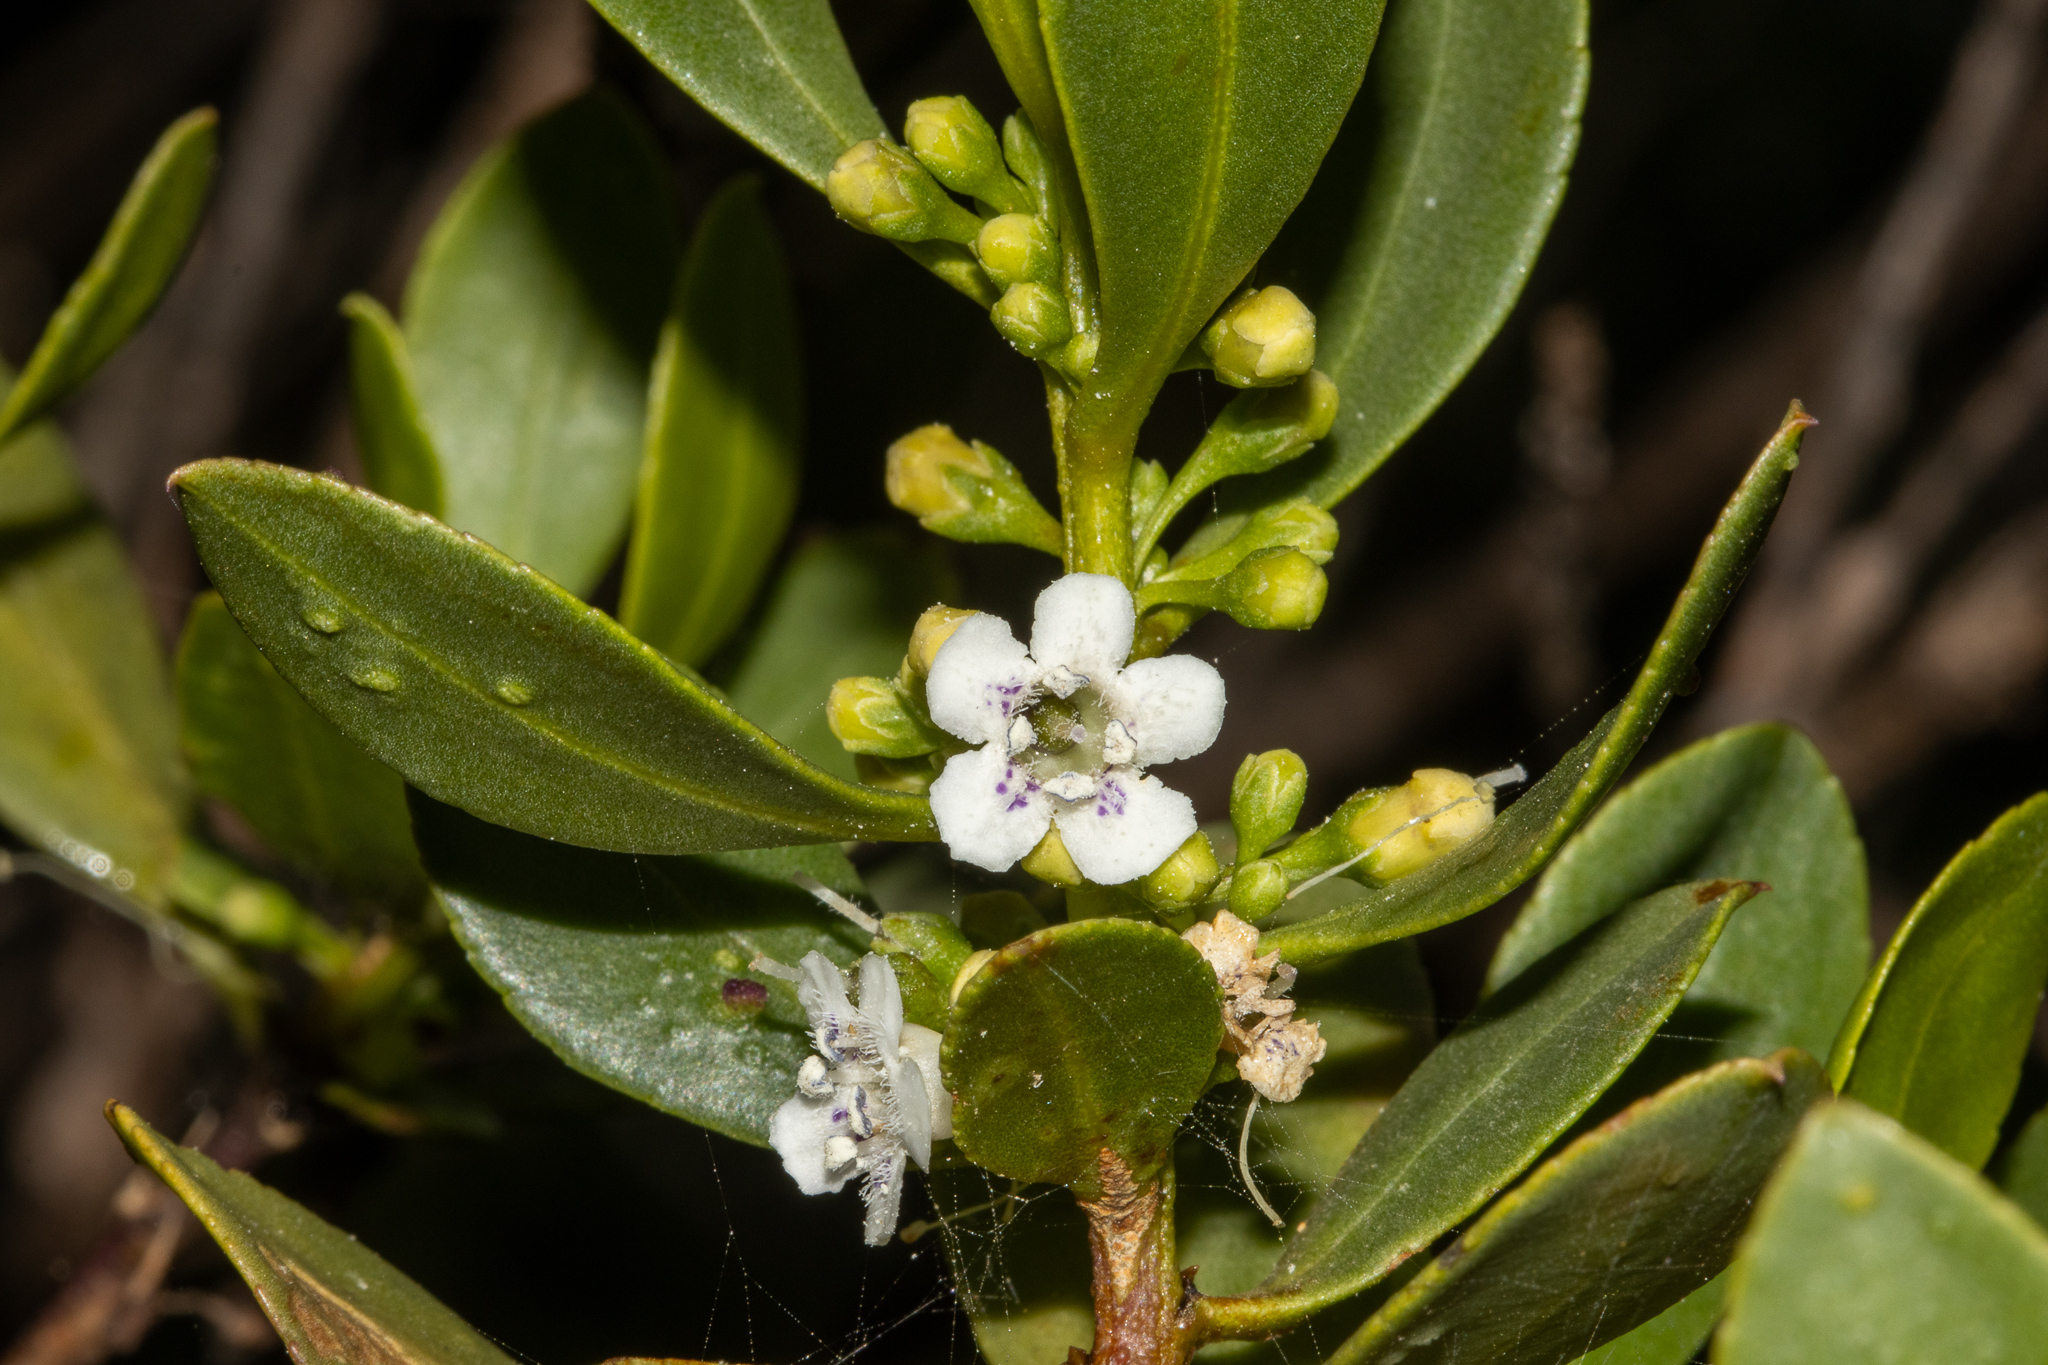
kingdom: Plantae
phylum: Tracheophyta
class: Magnoliopsida
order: Lamiales
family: Scrophulariaceae
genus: Myoporum
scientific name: Myoporum insulare
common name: Common boobialla
